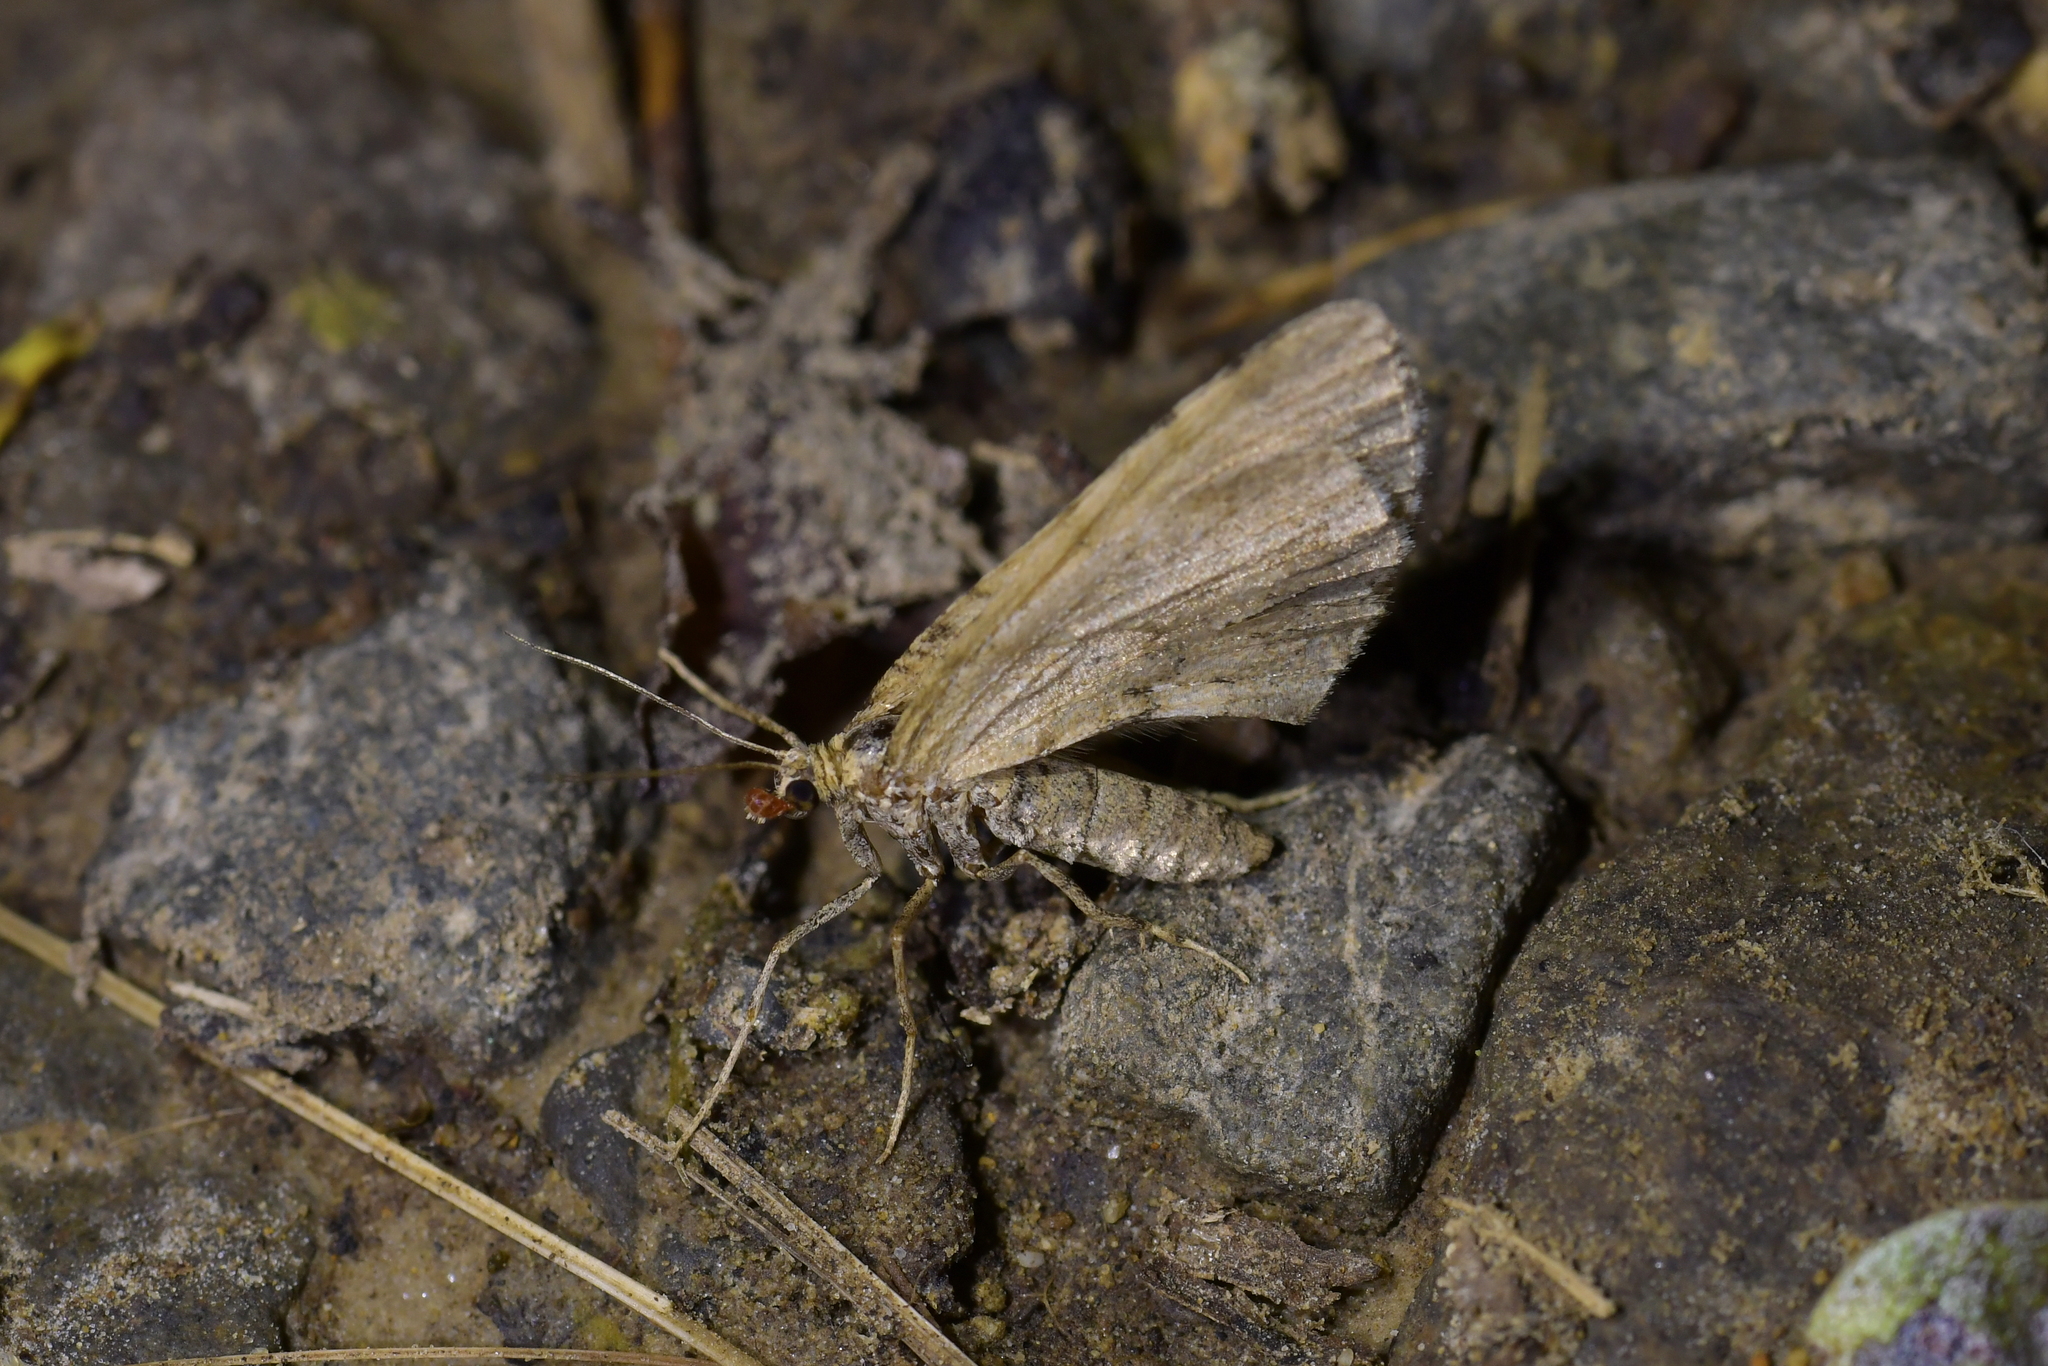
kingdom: Animalia
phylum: Arthropoda
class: Insecta
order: Lepidoptera
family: Geometridae
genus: Asaphodes
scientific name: Asaphodes aegrota
